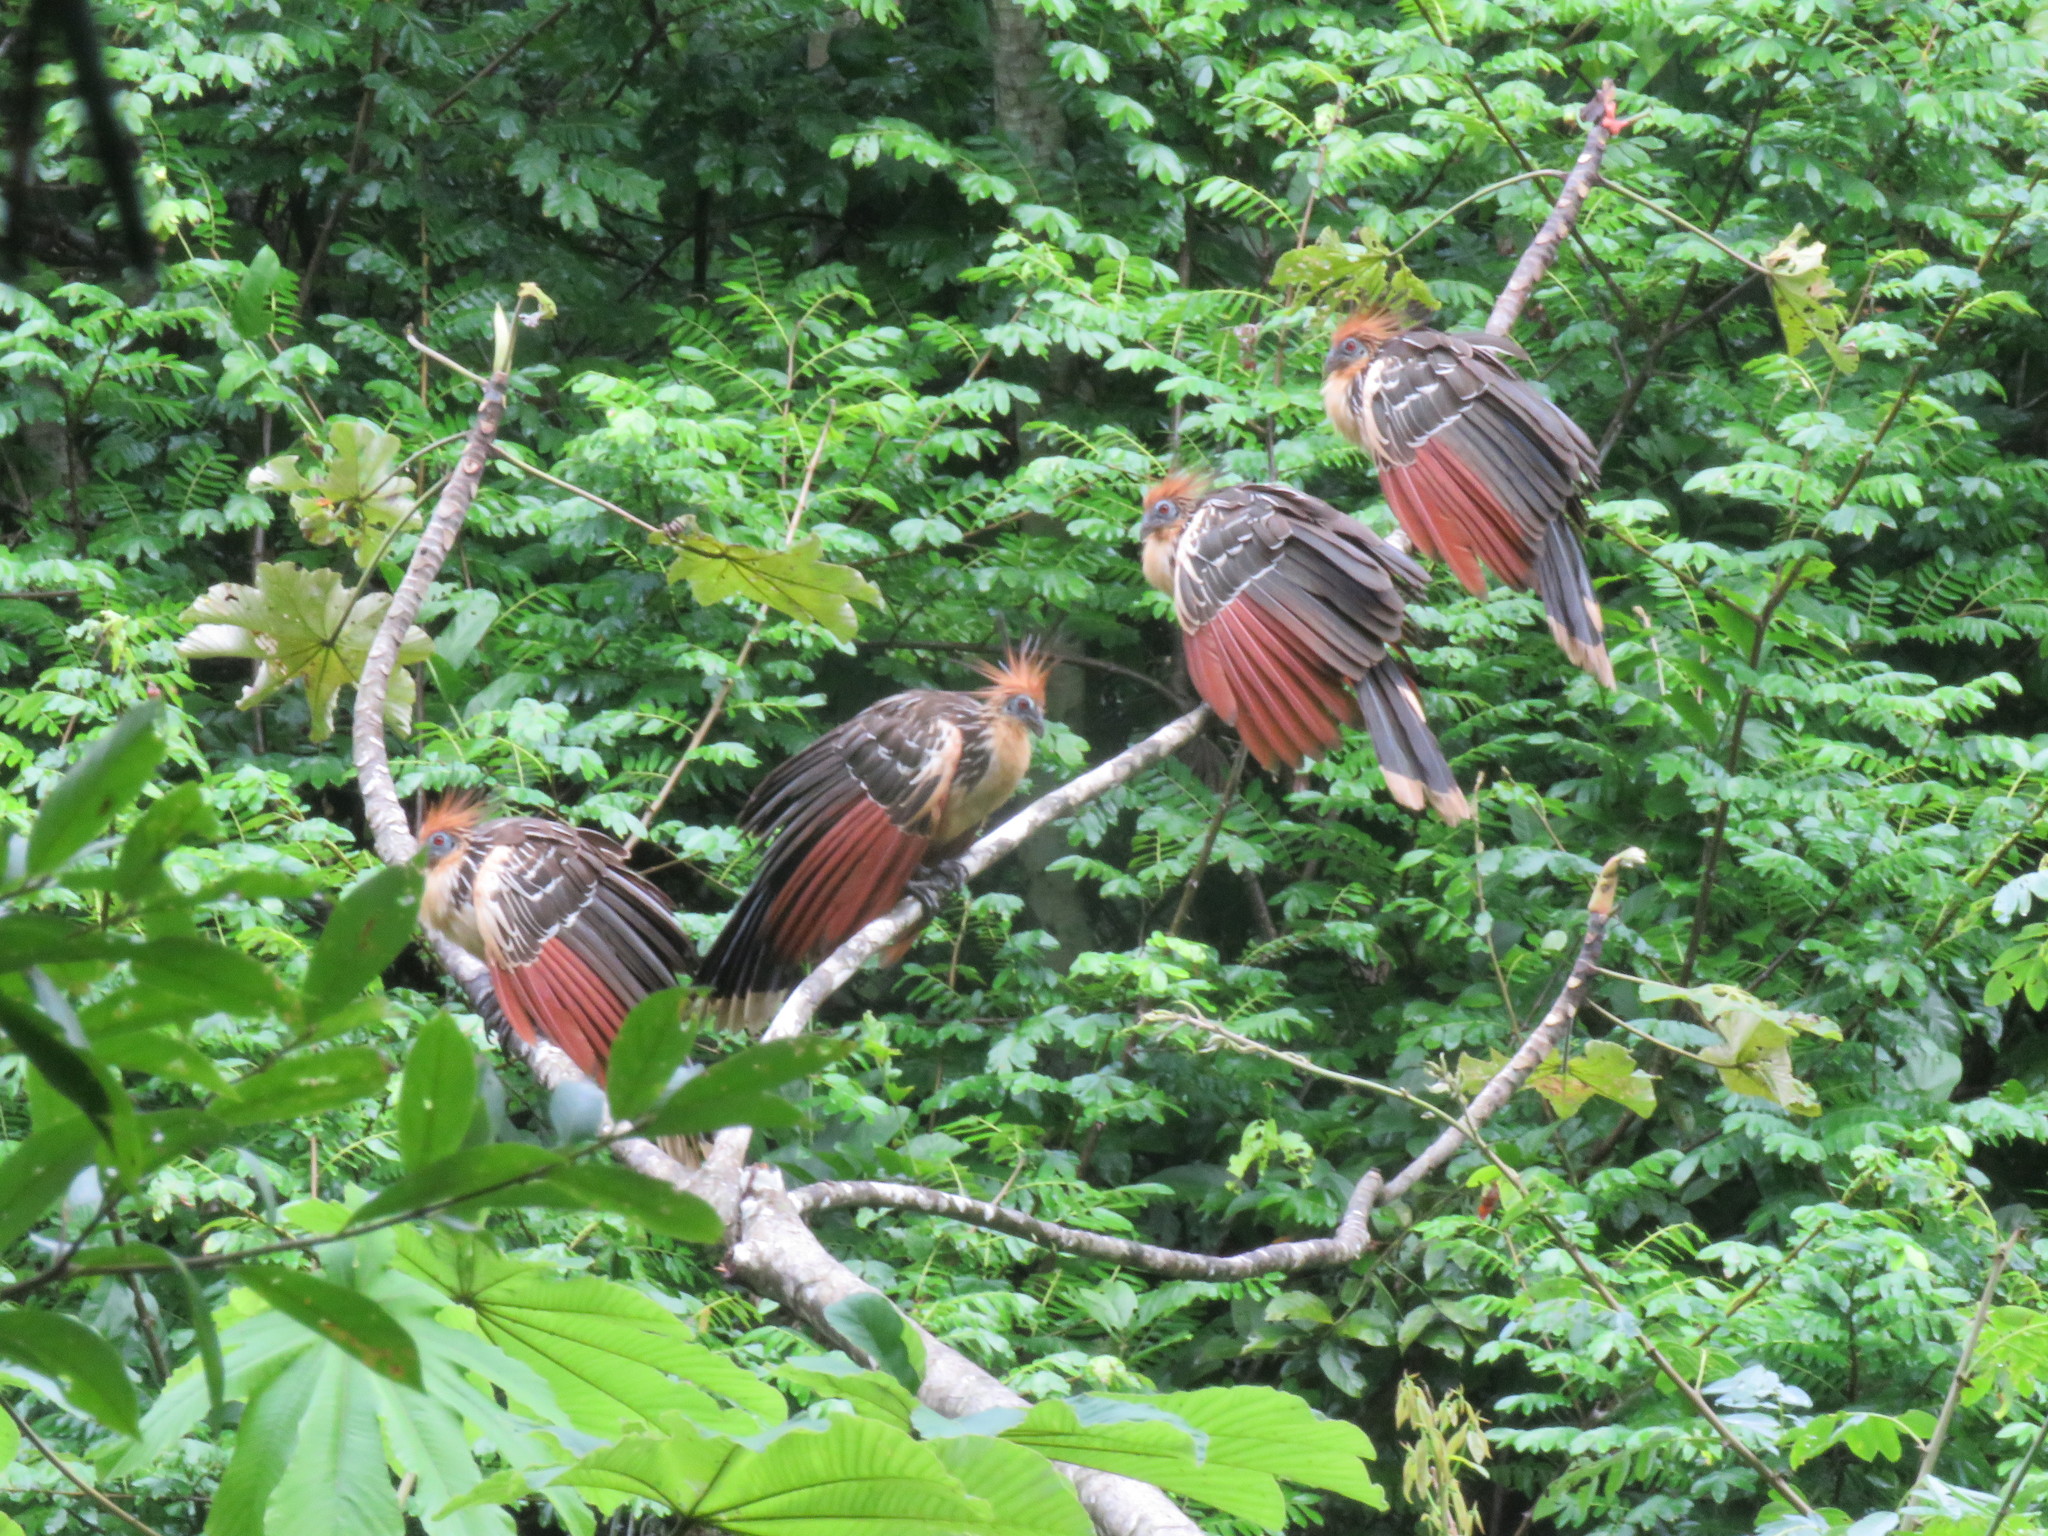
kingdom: Animalia
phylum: Chordata
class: Aves
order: Opisthocomiformes
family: Opisthocomidae
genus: Opisthocomus
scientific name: Opisthocomus hoazin
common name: Hoatzin
